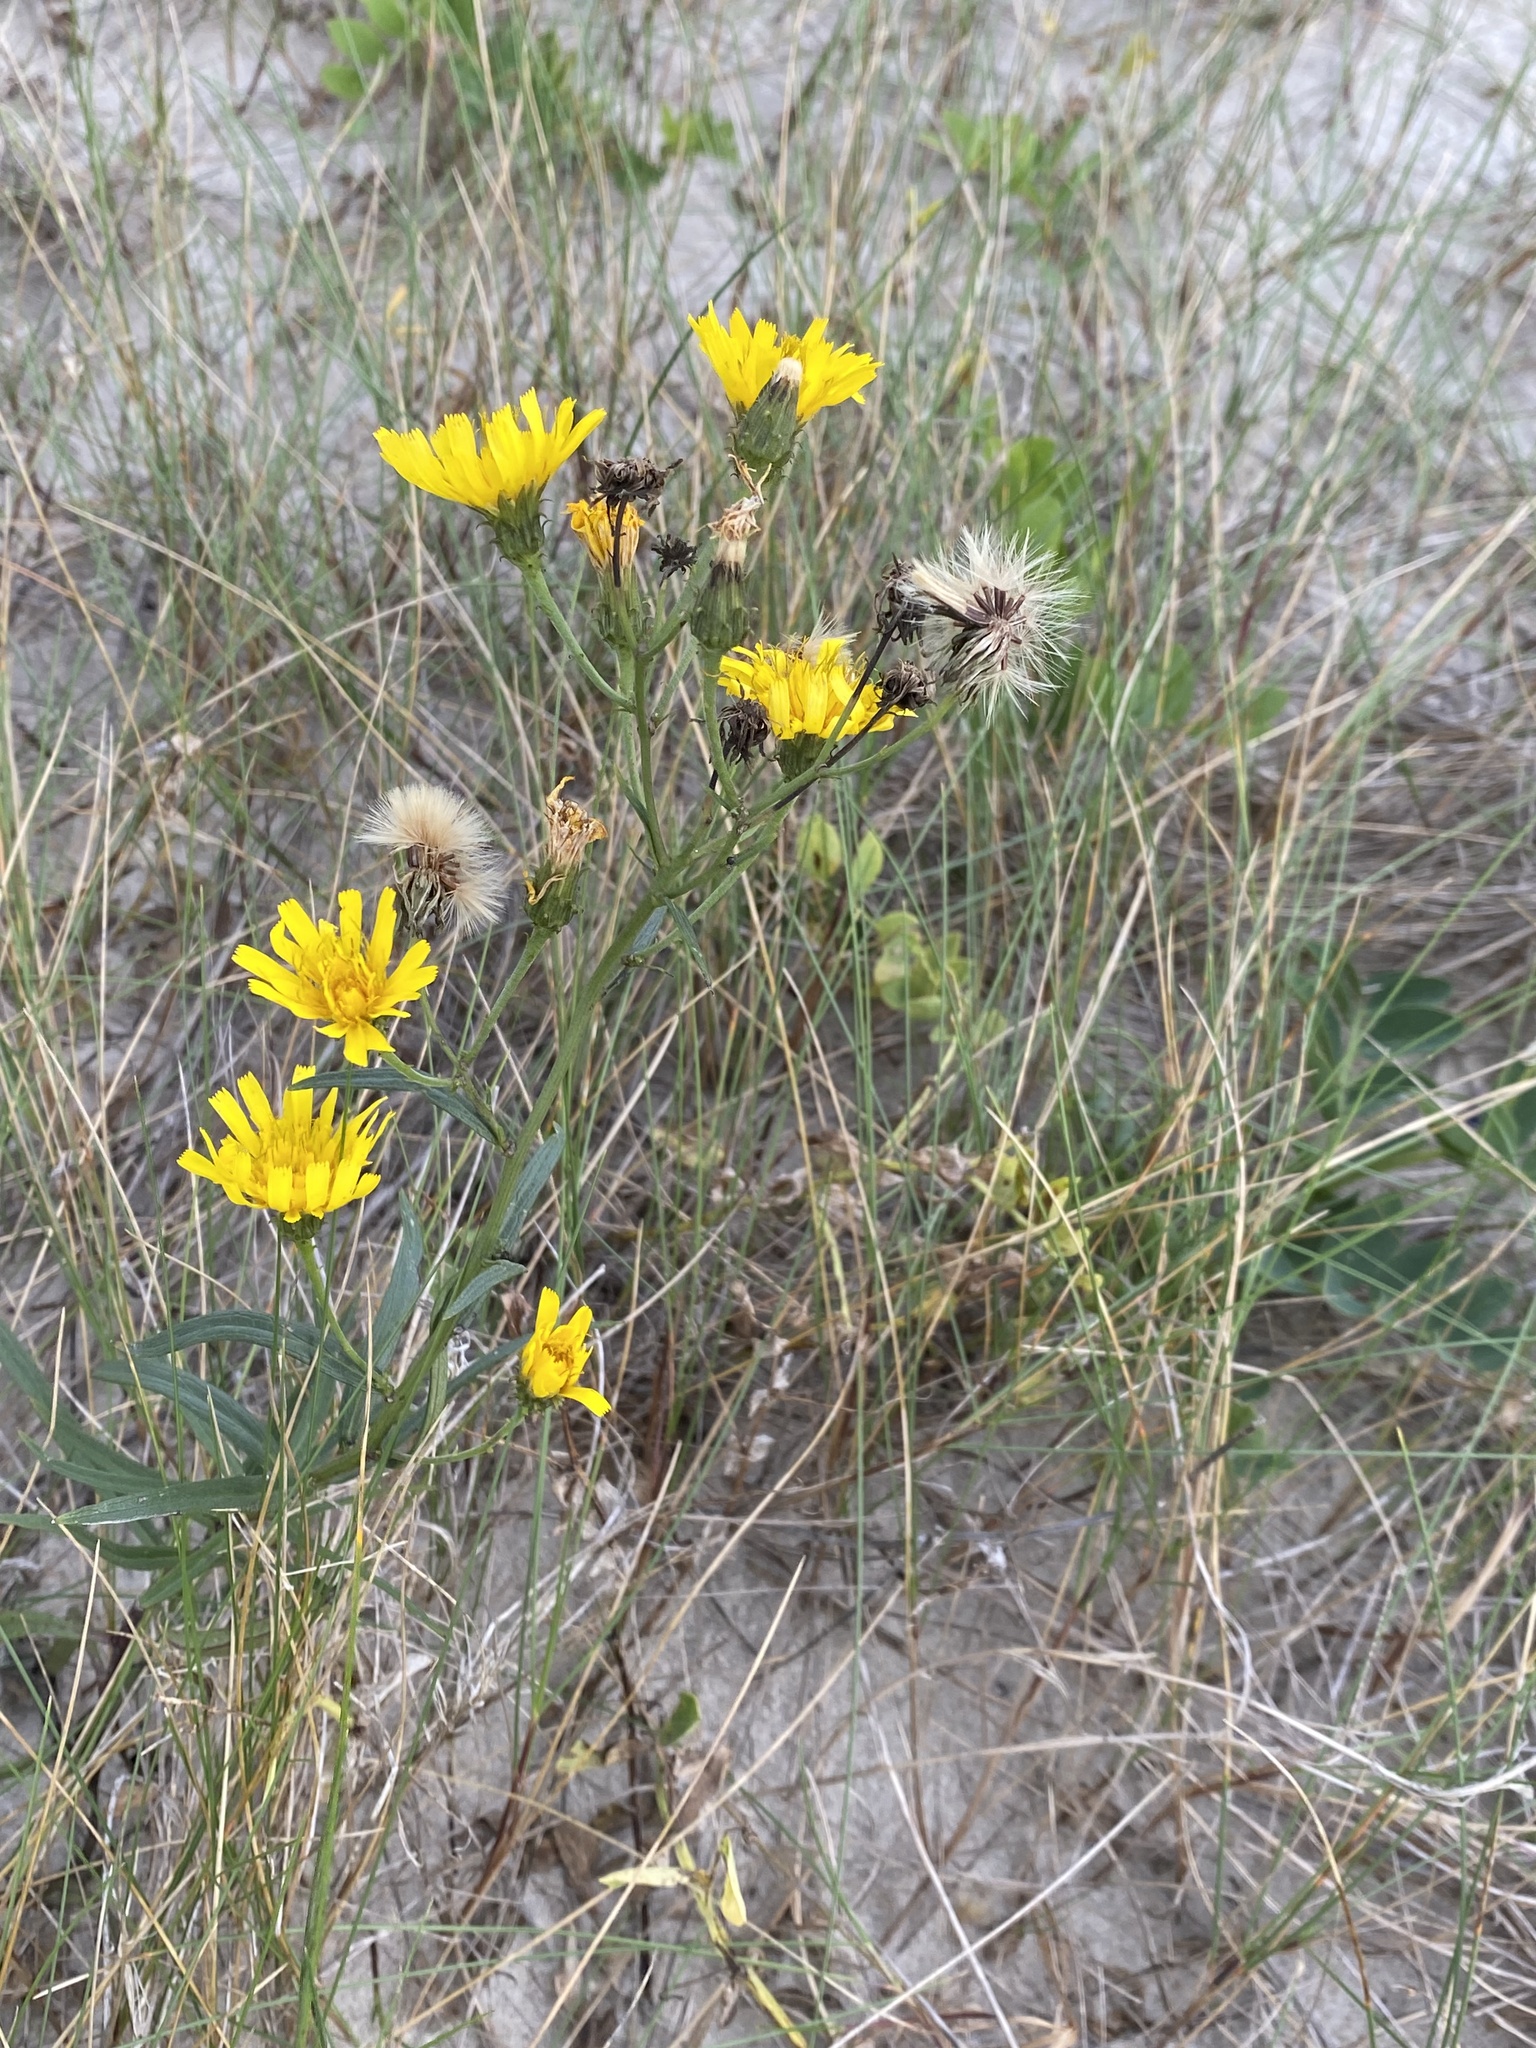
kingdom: Plantae
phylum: Tracheophyta
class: Magnoliopsida
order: Asterales
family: Asteraceae
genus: Hieracium
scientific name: Hieracium umbellatum
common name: Northern hawkweed
